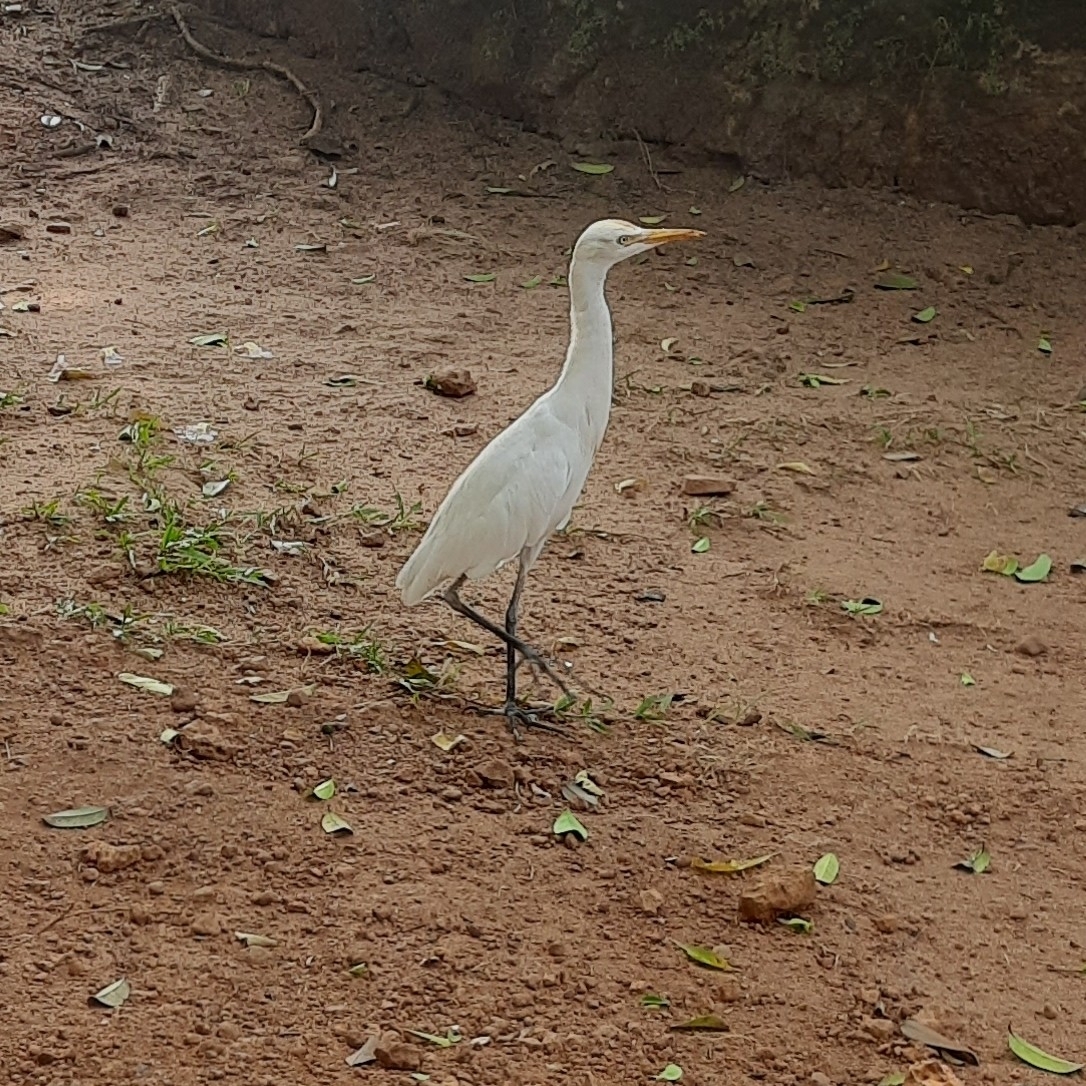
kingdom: Animalia
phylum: Chordata
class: Aves
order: Pelecaniformes
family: Ardeidae
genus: Bubulcus
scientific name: Bubulcus coromandus
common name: Eastern cattle egret
